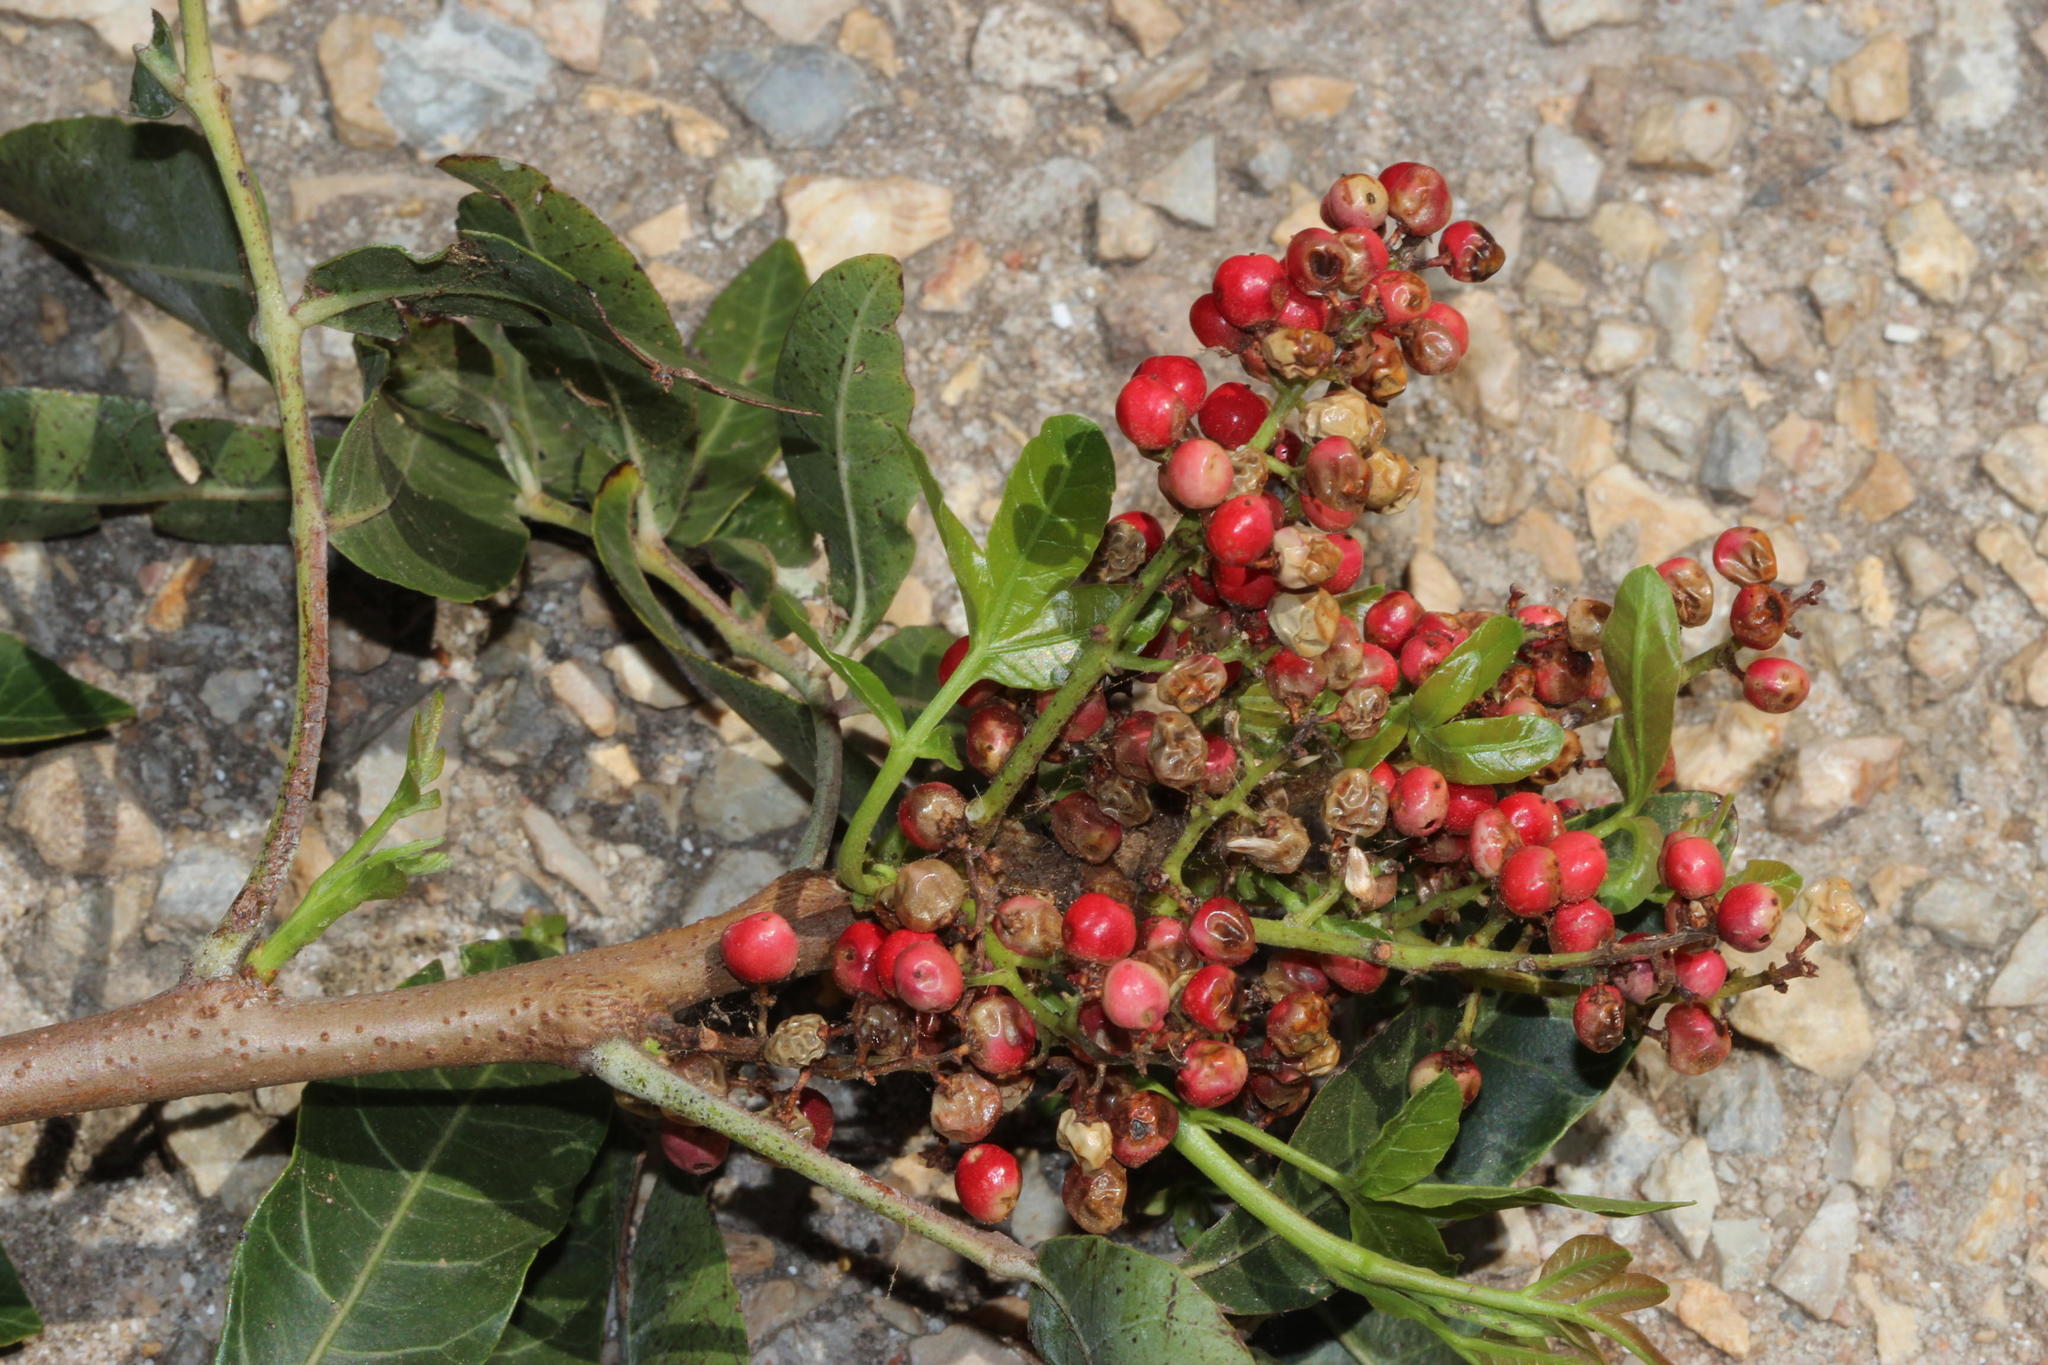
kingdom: Plantae
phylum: Tracheophyta
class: Magnoliopsida
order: Sapindales
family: Anacardiaceae
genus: Schinus
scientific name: Schinus terebinthifolia
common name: Brazilian peppertree
